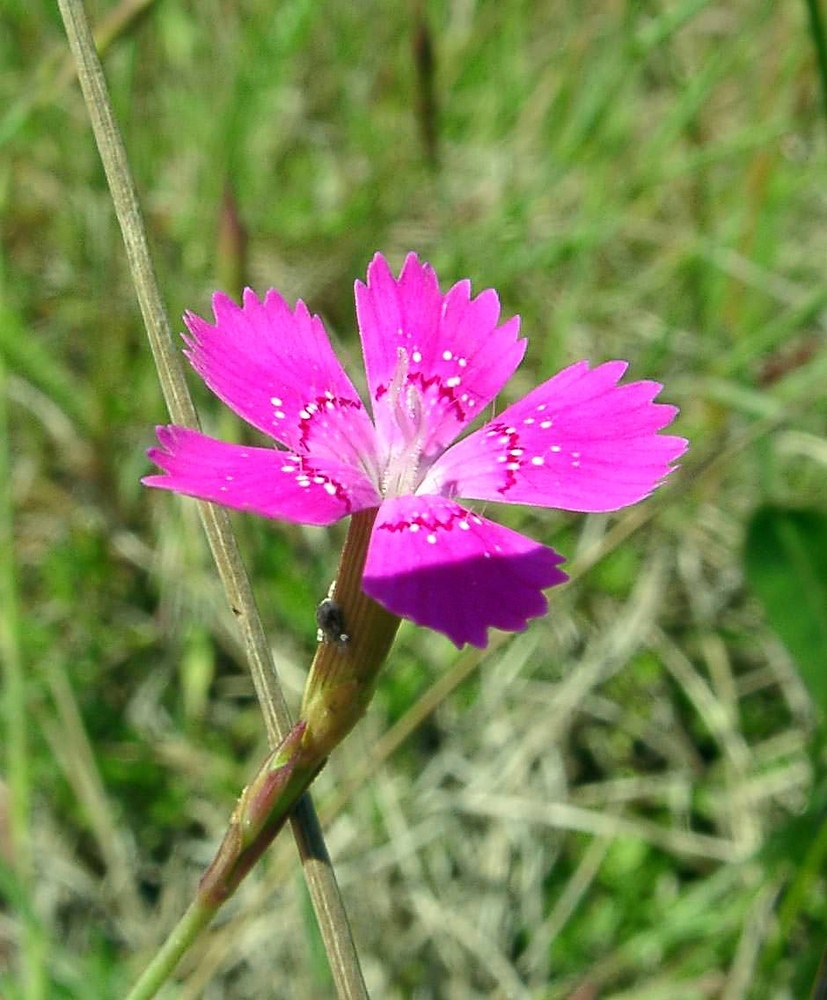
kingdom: Plantae
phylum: Tracheophyta
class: Magnoliopsida
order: Caryophyllales
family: Caryophyllaceae
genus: Dianthus
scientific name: Dianthus deltoides
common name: Maiden pink
